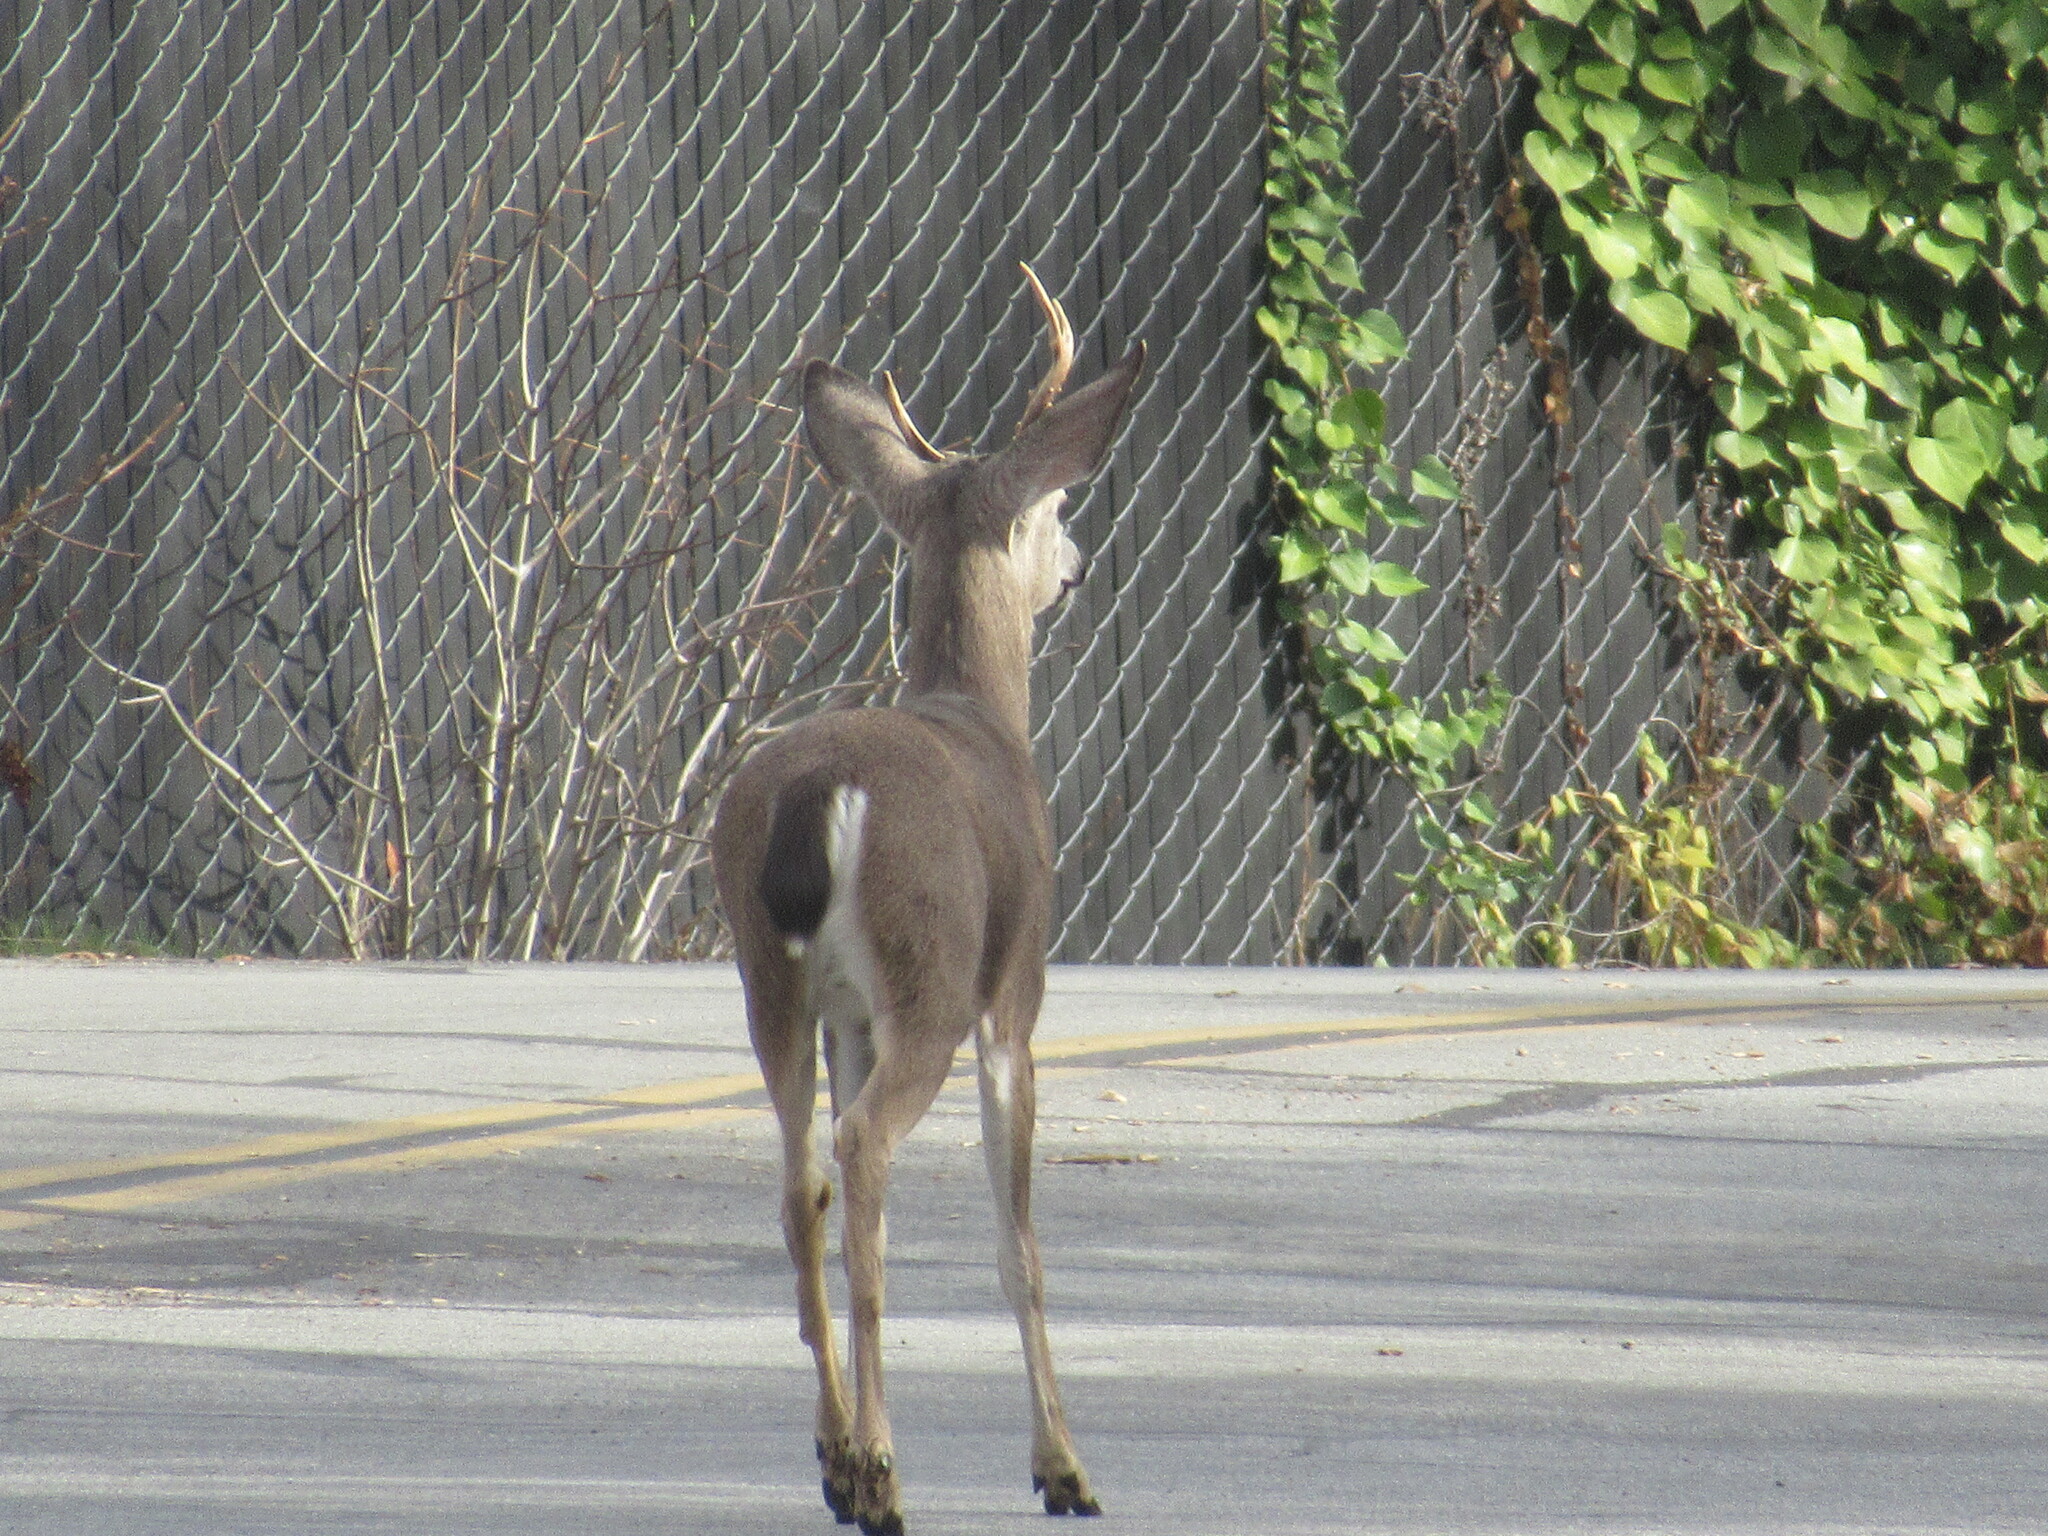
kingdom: Animalia
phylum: Chordata
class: Mammalia
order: Artiodactyla
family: Cervidae
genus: Odocoileus
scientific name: Odocoileus hemionus
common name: Mule deer
